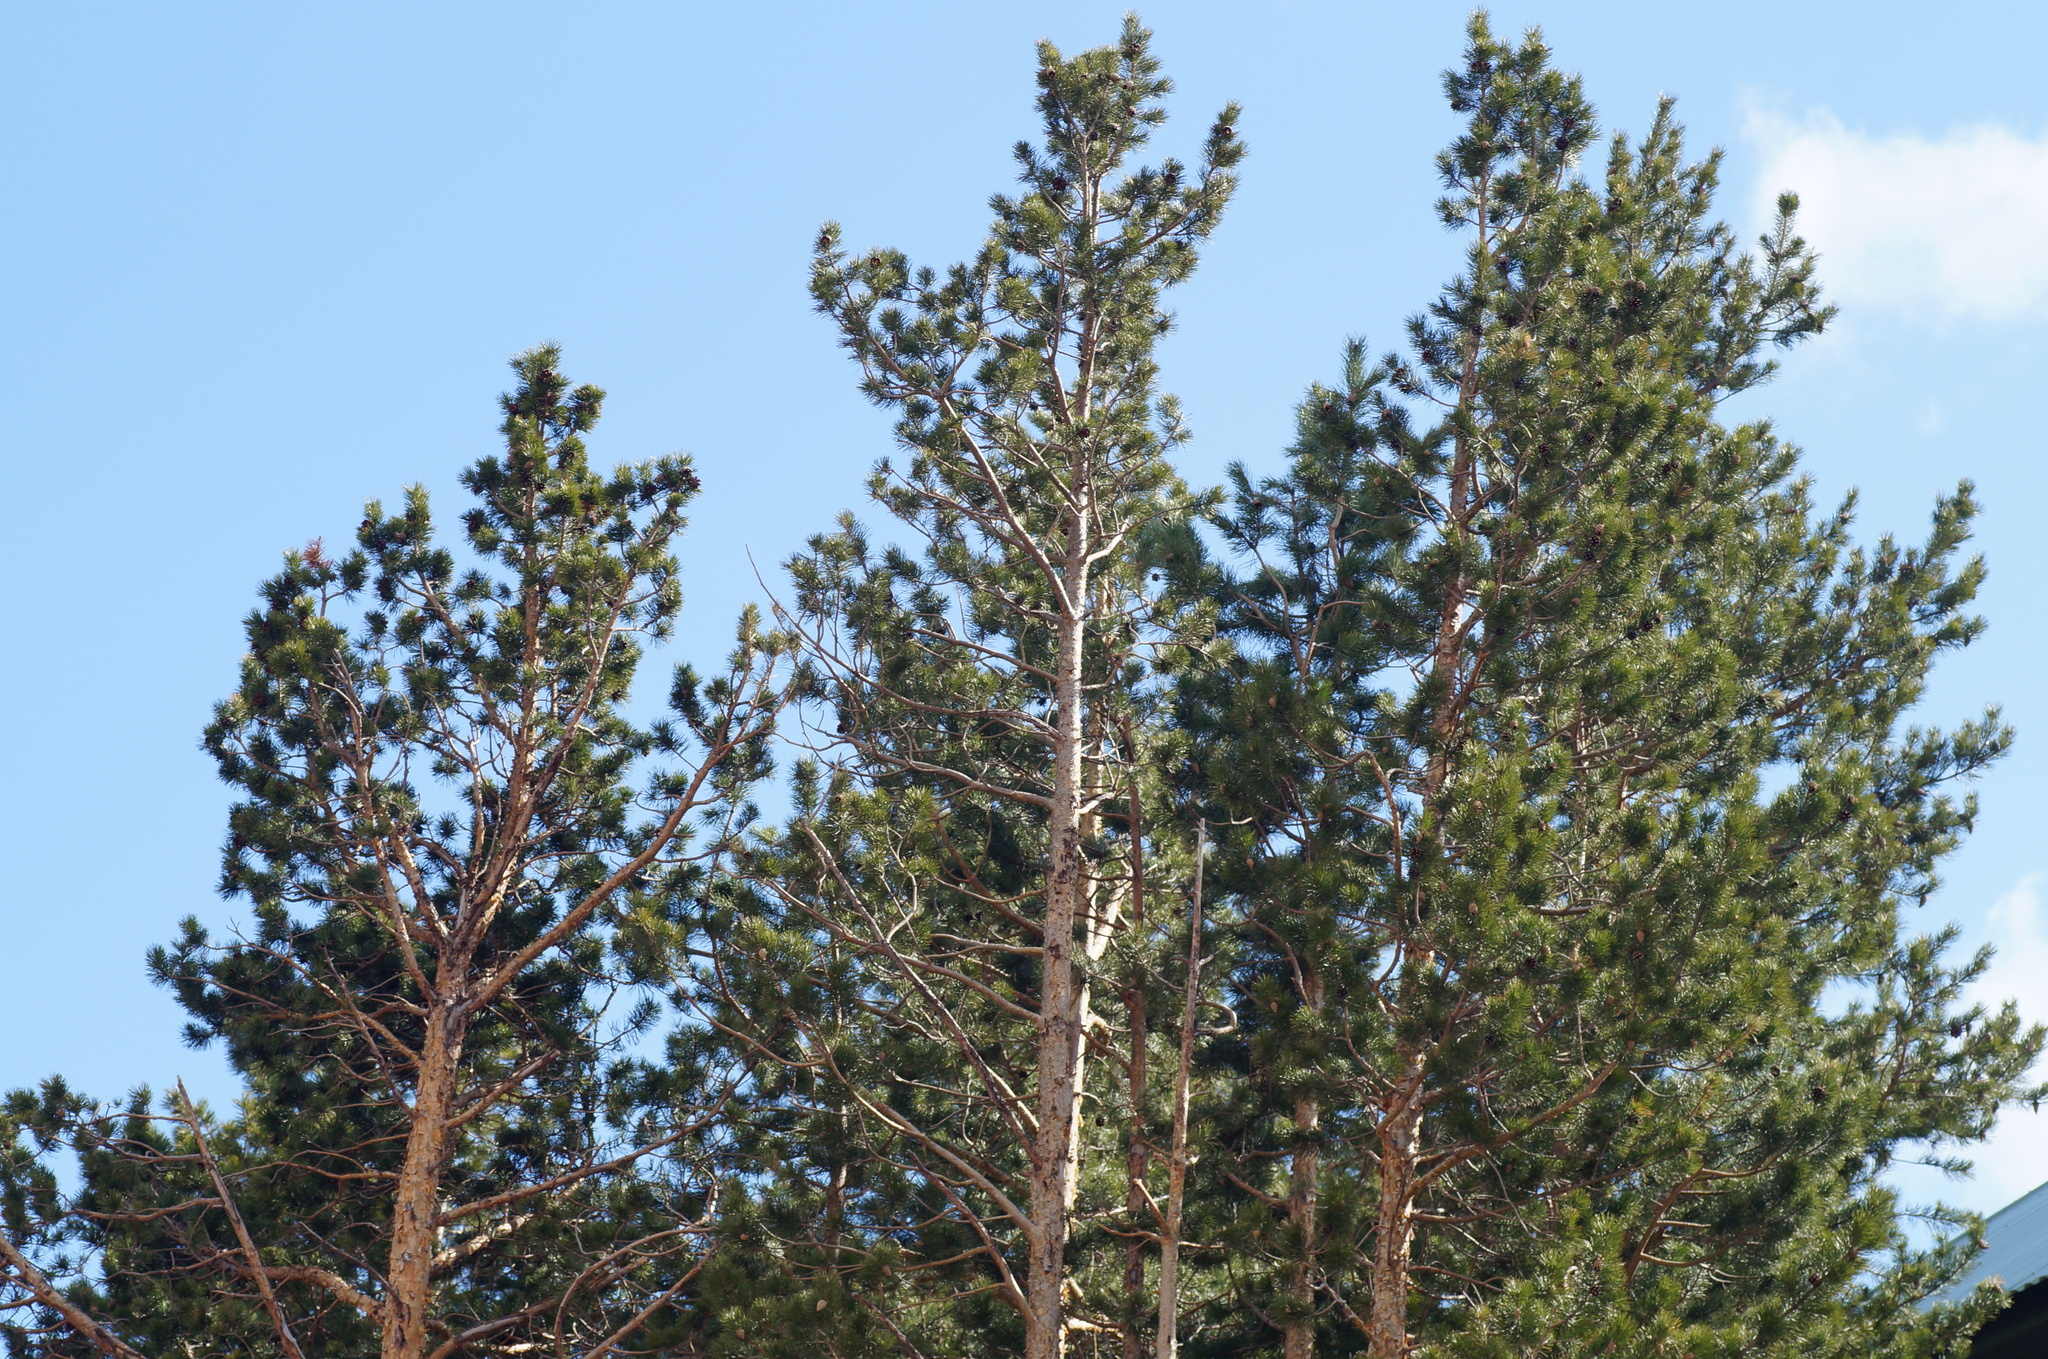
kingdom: Plantae
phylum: Tracheophyta
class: Pinopsida
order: Pinales
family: Pinaceae
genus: Pinus
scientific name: Pinus sylvestris
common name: Scots pine
